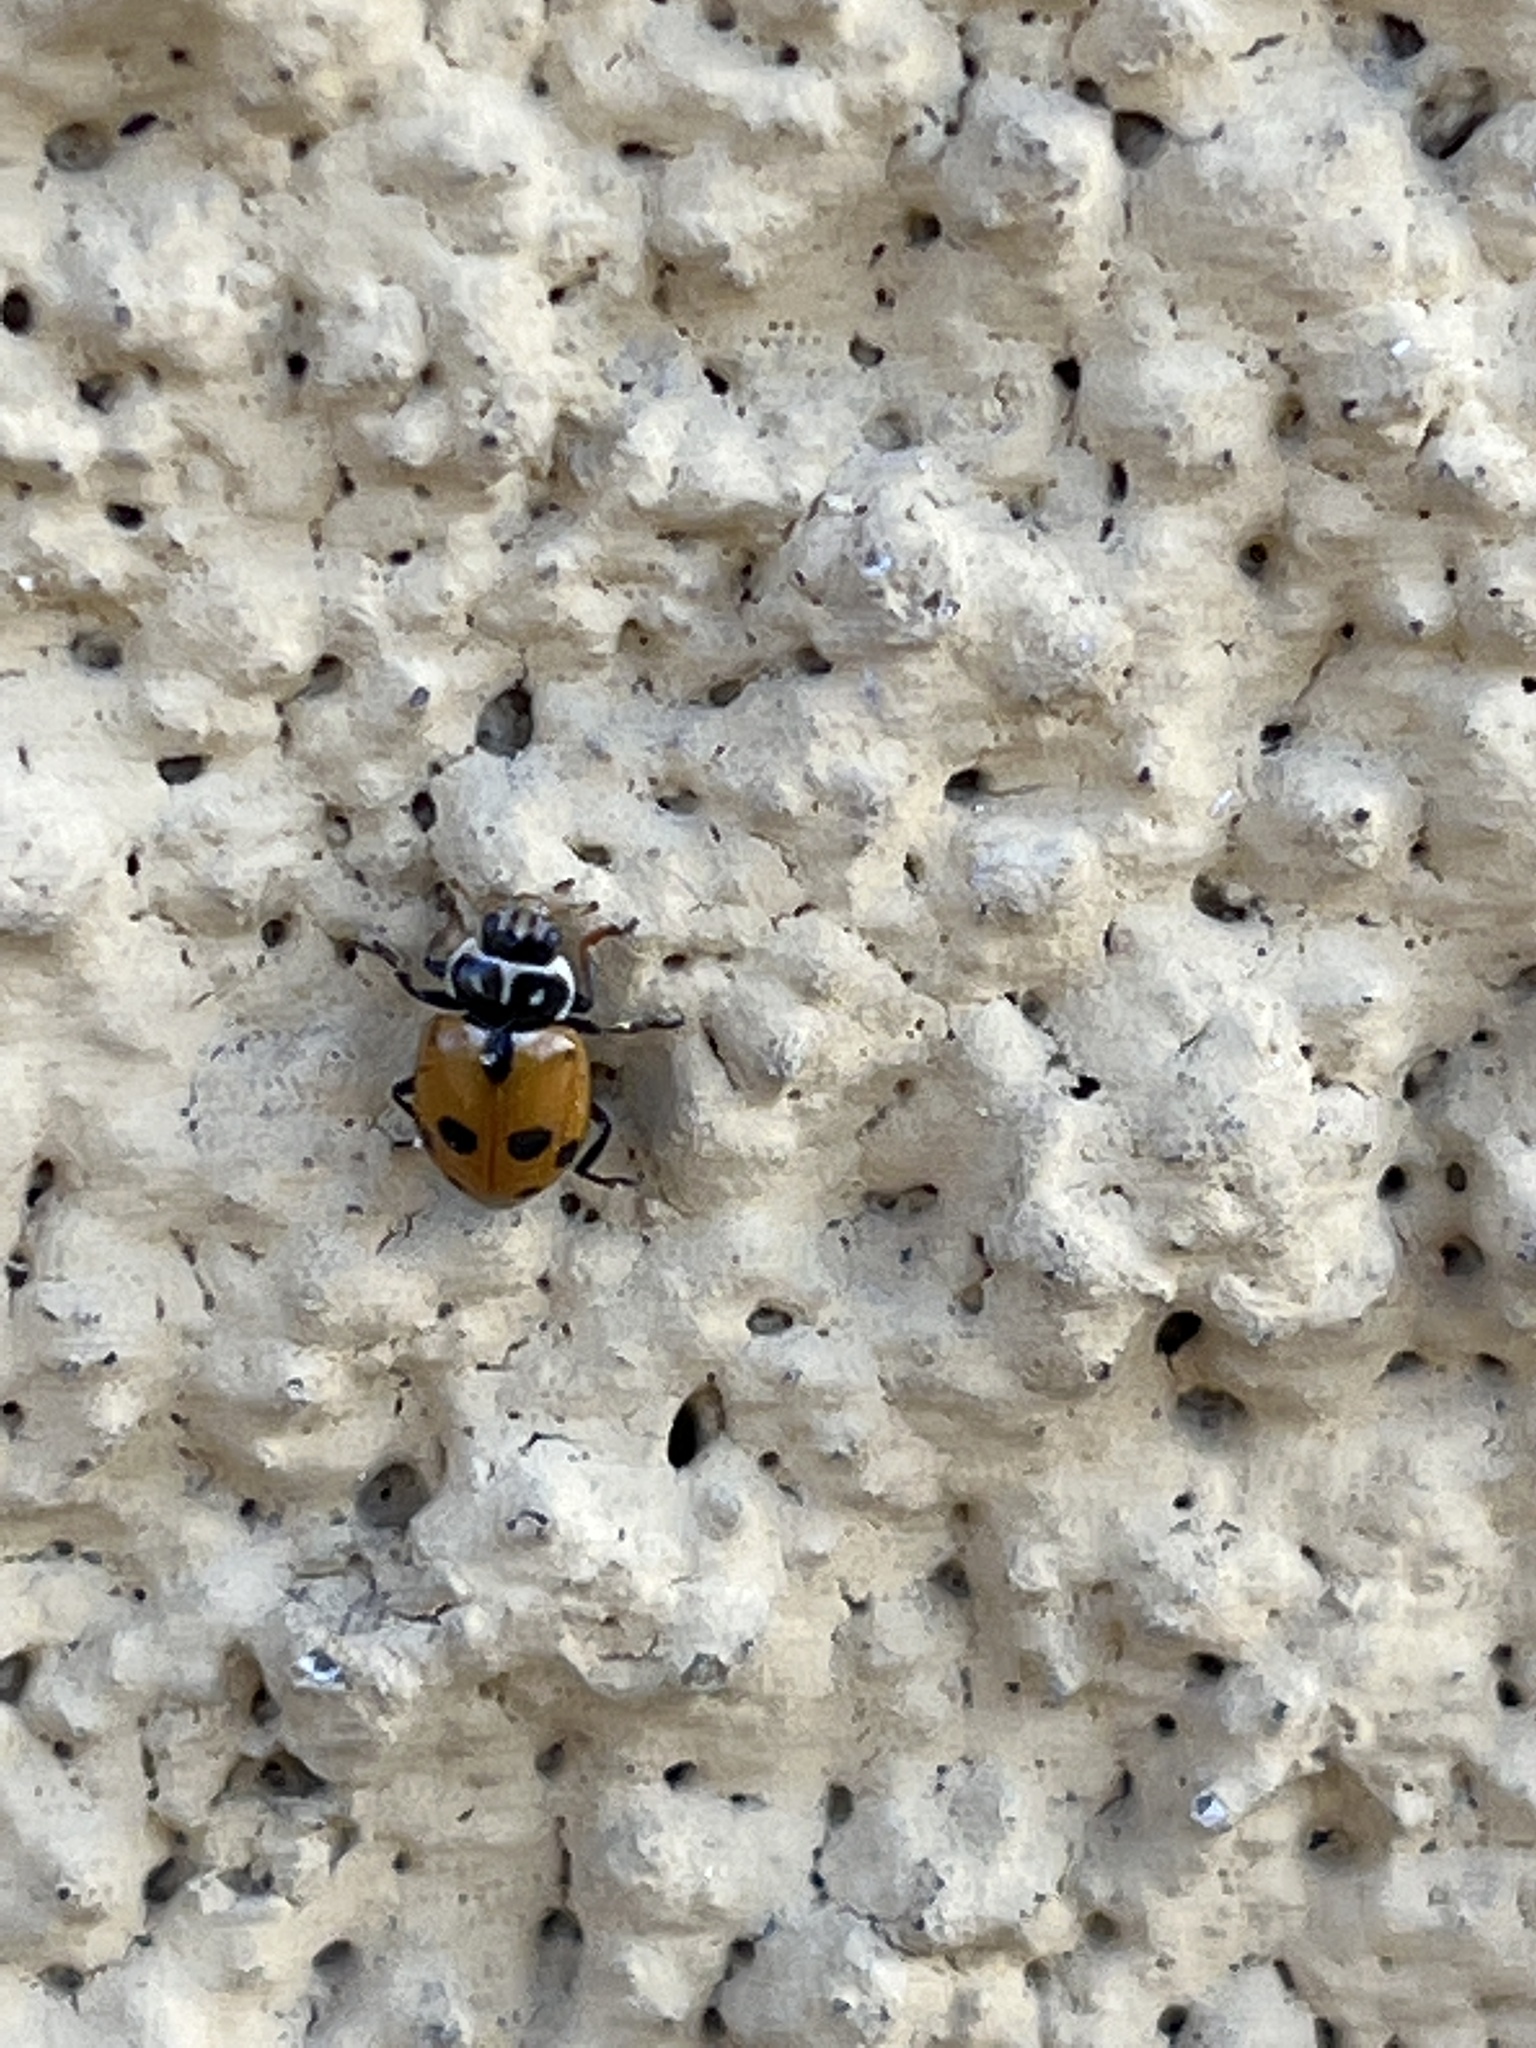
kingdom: Animalia
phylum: Arthropoda
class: Insecta
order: Coleoptera
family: Coccinellidae
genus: Hippodamia
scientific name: Hippodamia variegata
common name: Ladybird beetle
